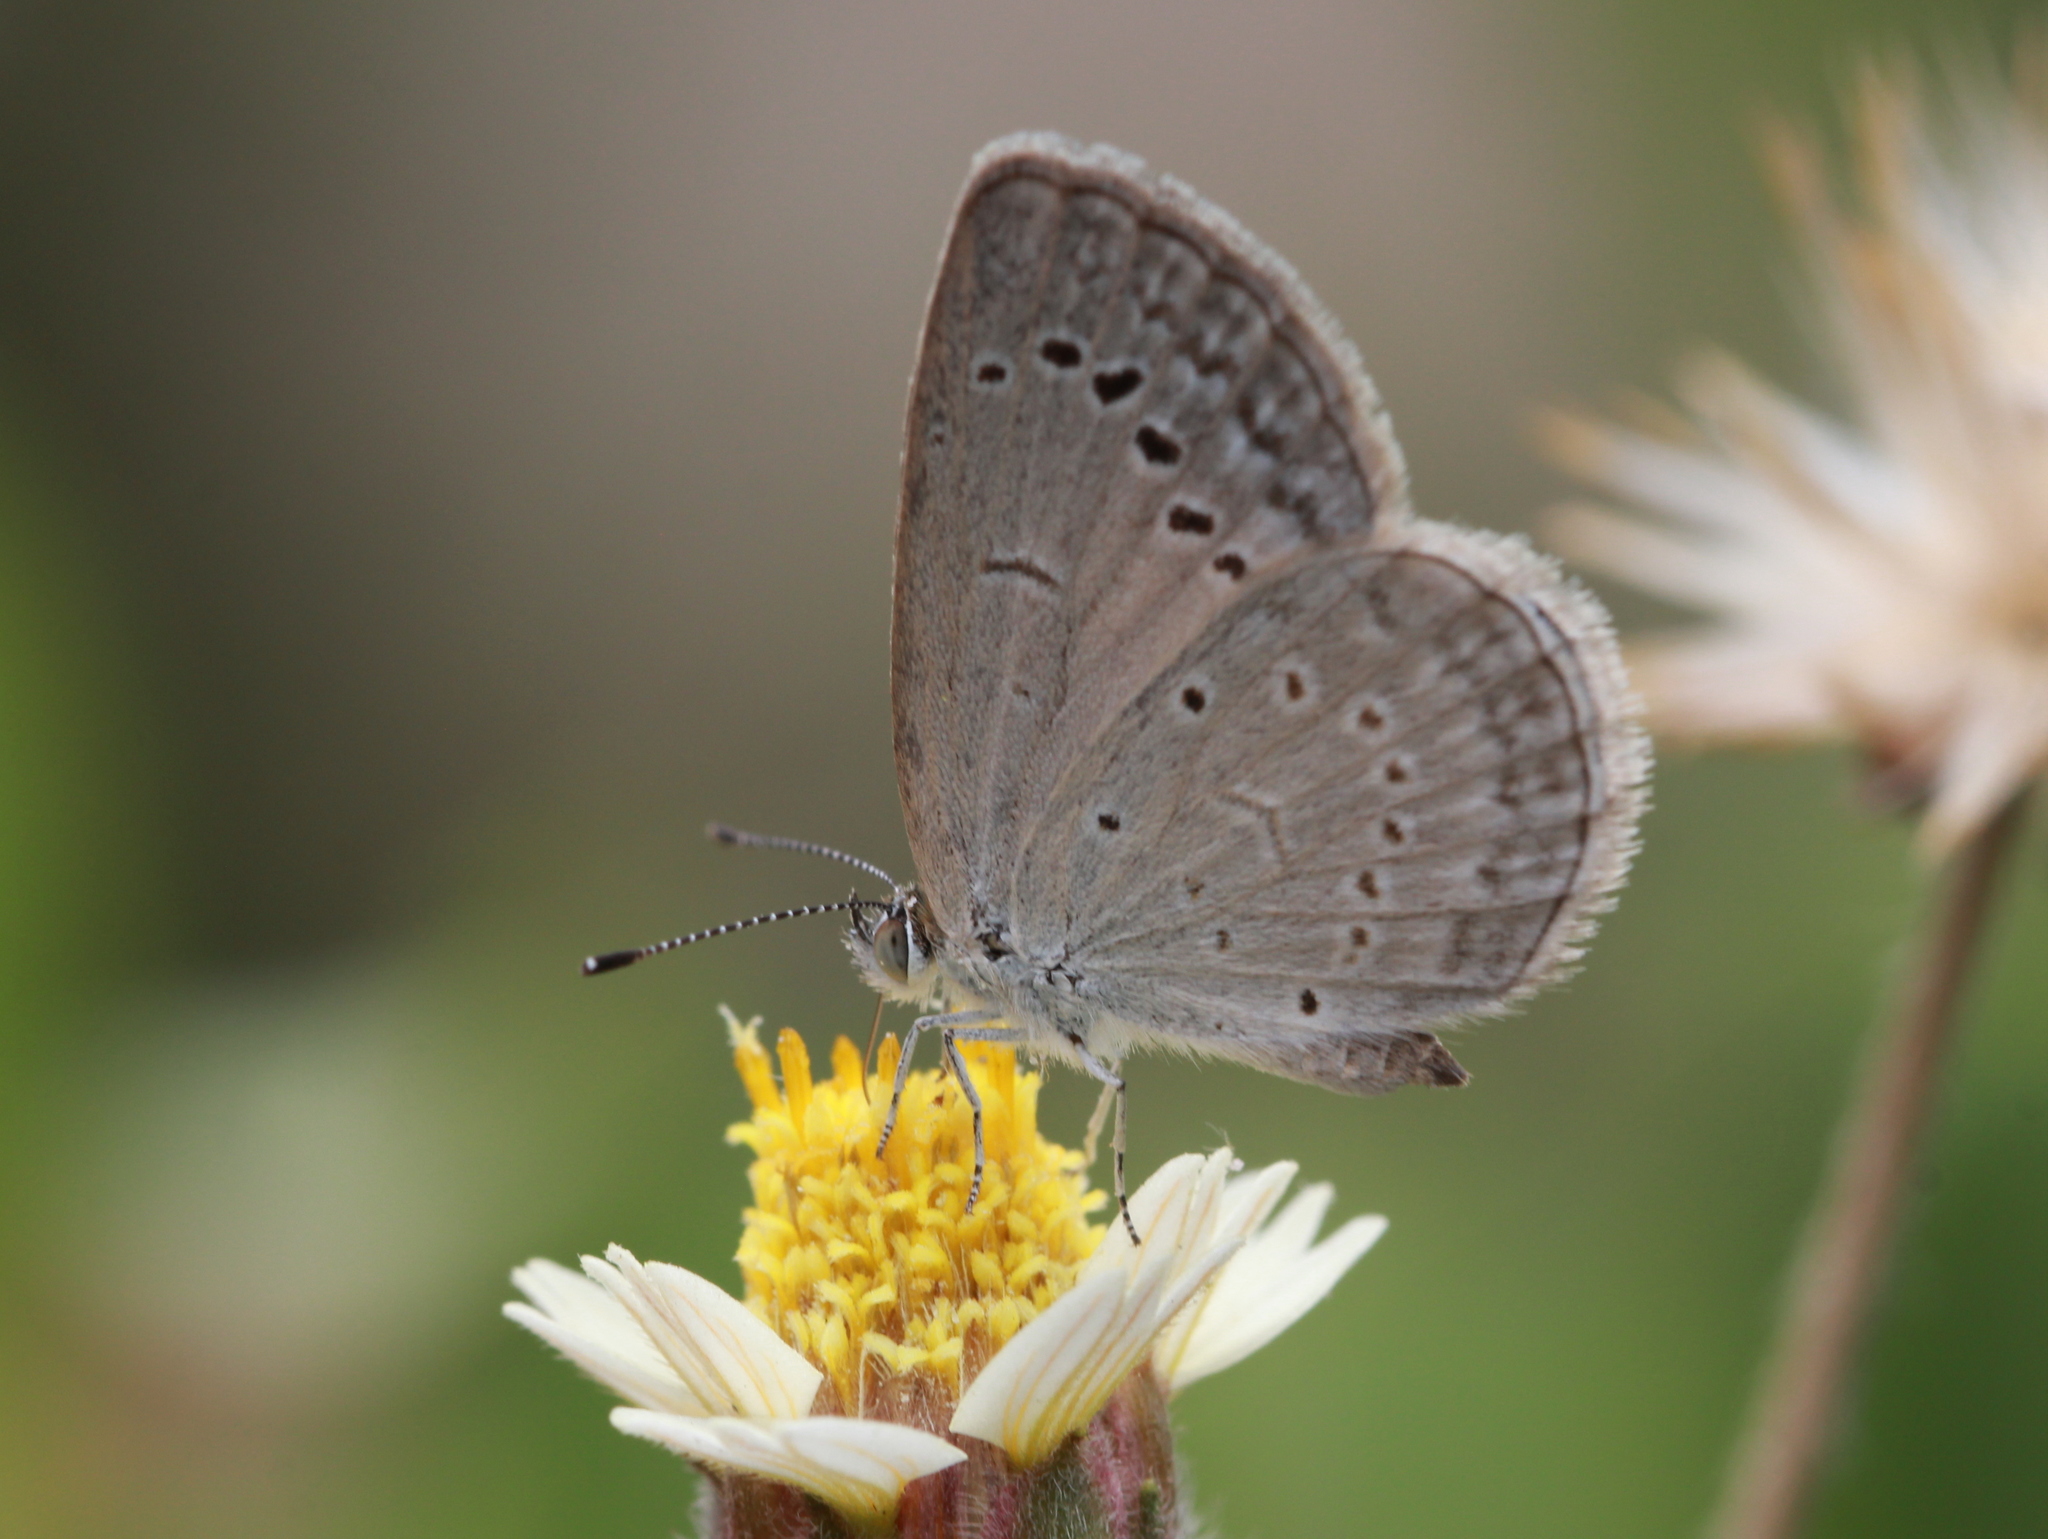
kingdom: Animalia
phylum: Arthropoda
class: Insecta
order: Lepidoptera
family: Lycaenidae
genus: Pseudozizeeria
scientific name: Pseudozizeeria maha
